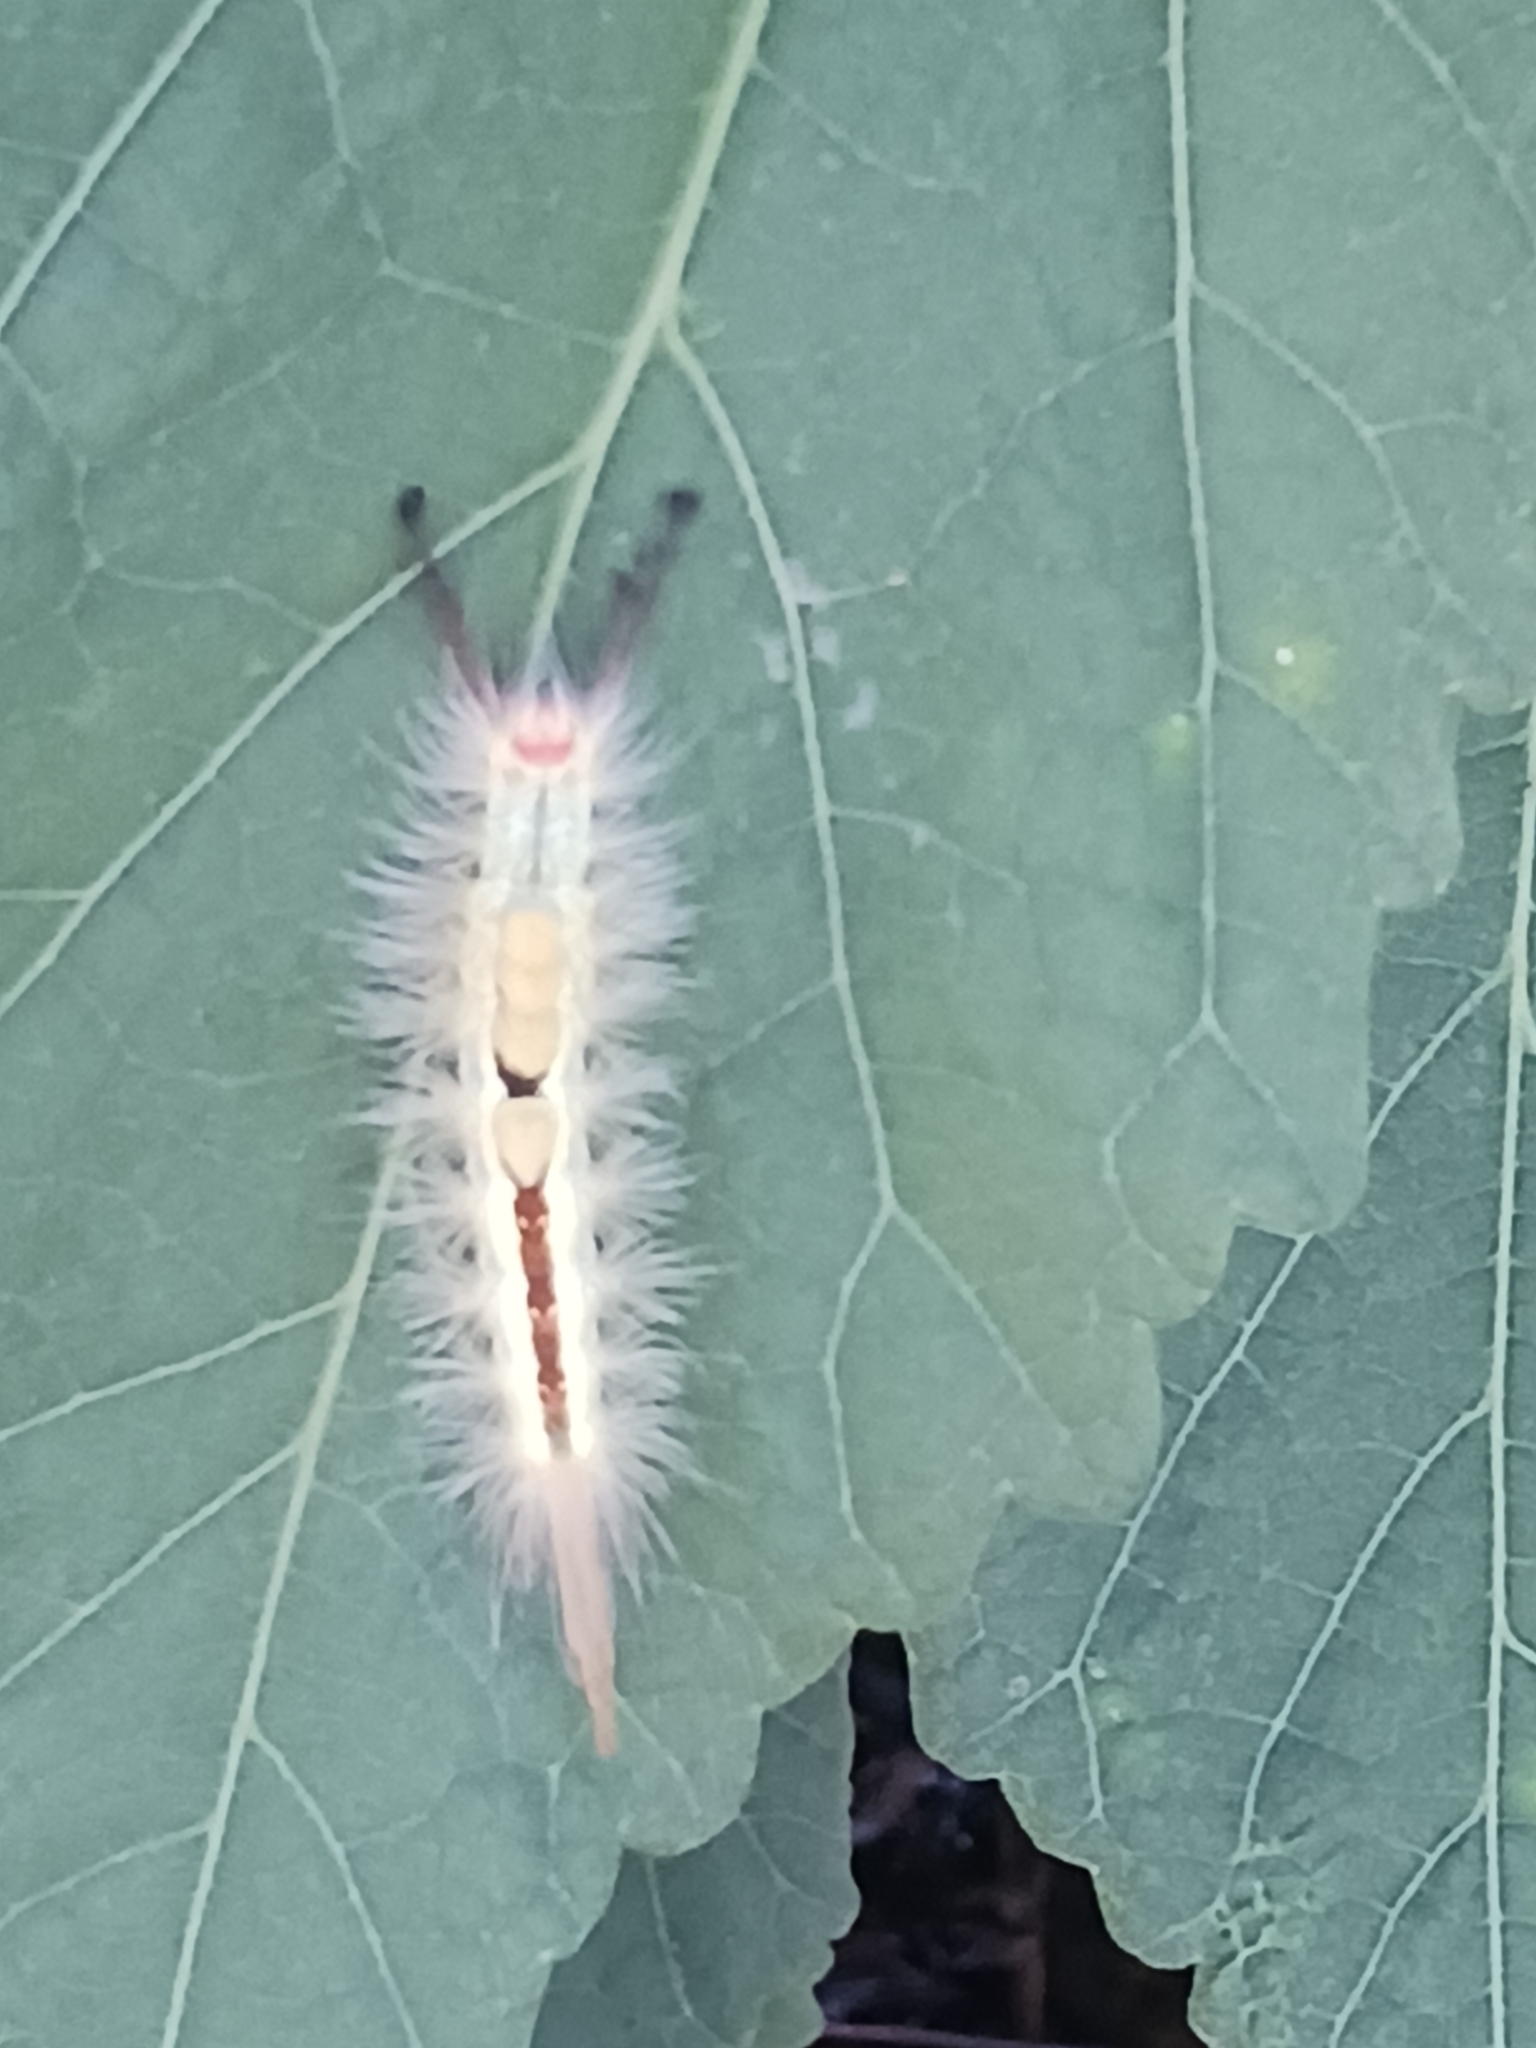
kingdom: Animalia
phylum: Arthropoda
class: Insecta
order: Lepidoptera
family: Erebidae
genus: Orgyia
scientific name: Orgyia leucostigma
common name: White-marked tussock moth
